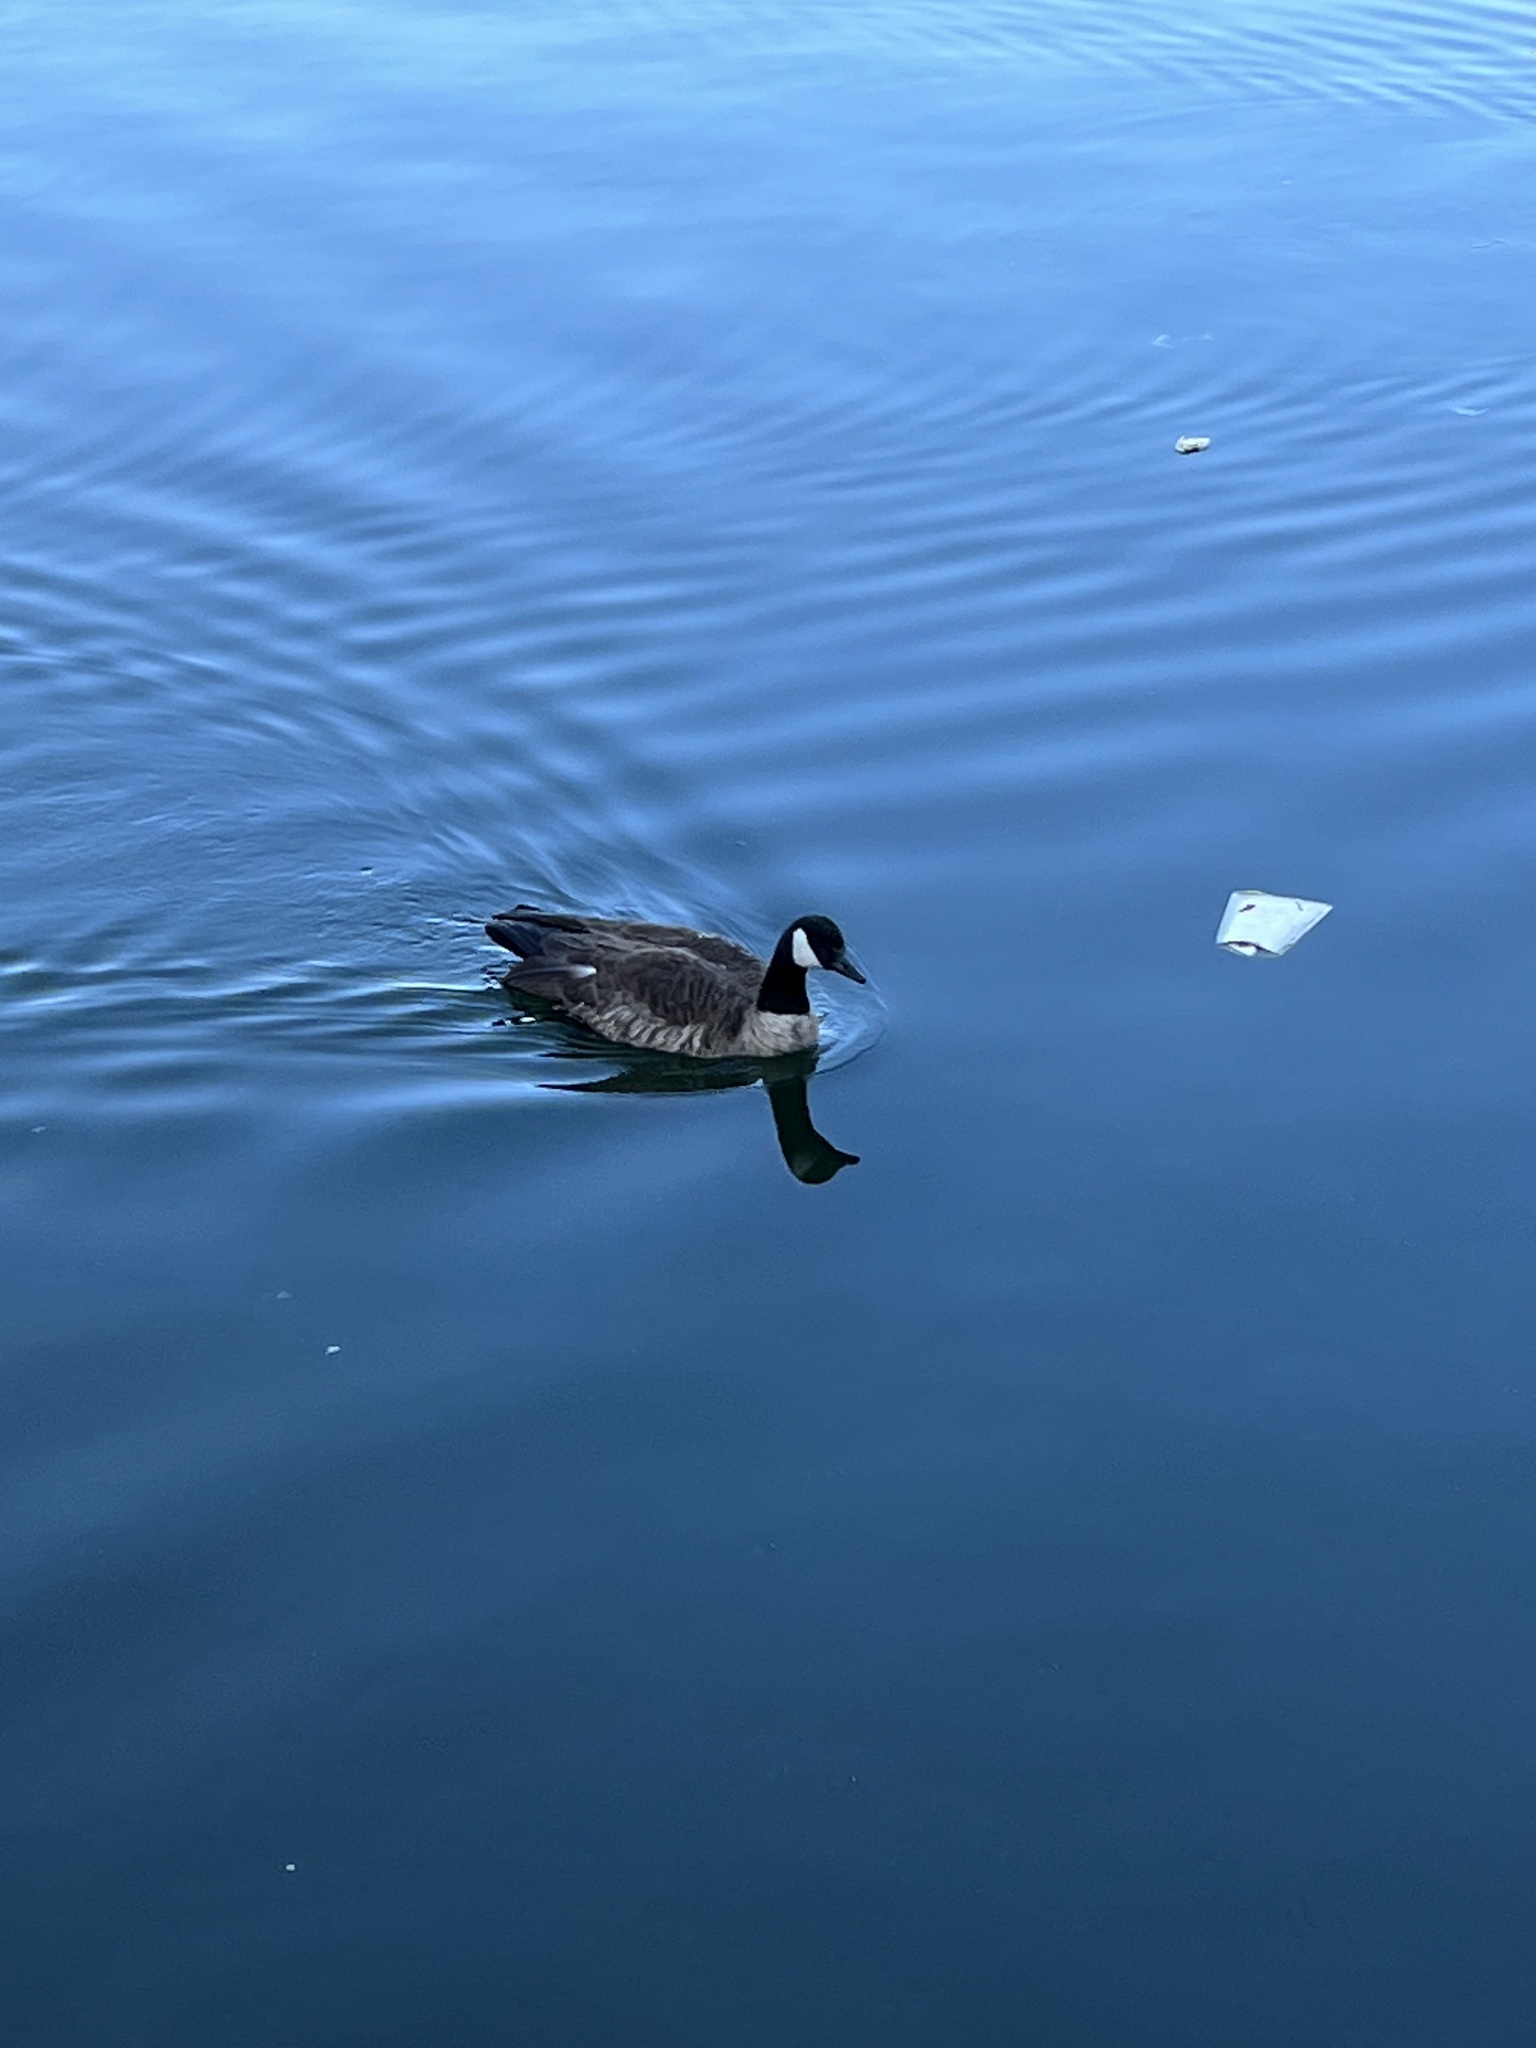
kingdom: Animalia
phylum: Chordata
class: Aves
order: Anseriformes
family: Anatidae
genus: Branta
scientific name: Branta canadensis
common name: Canada goose
